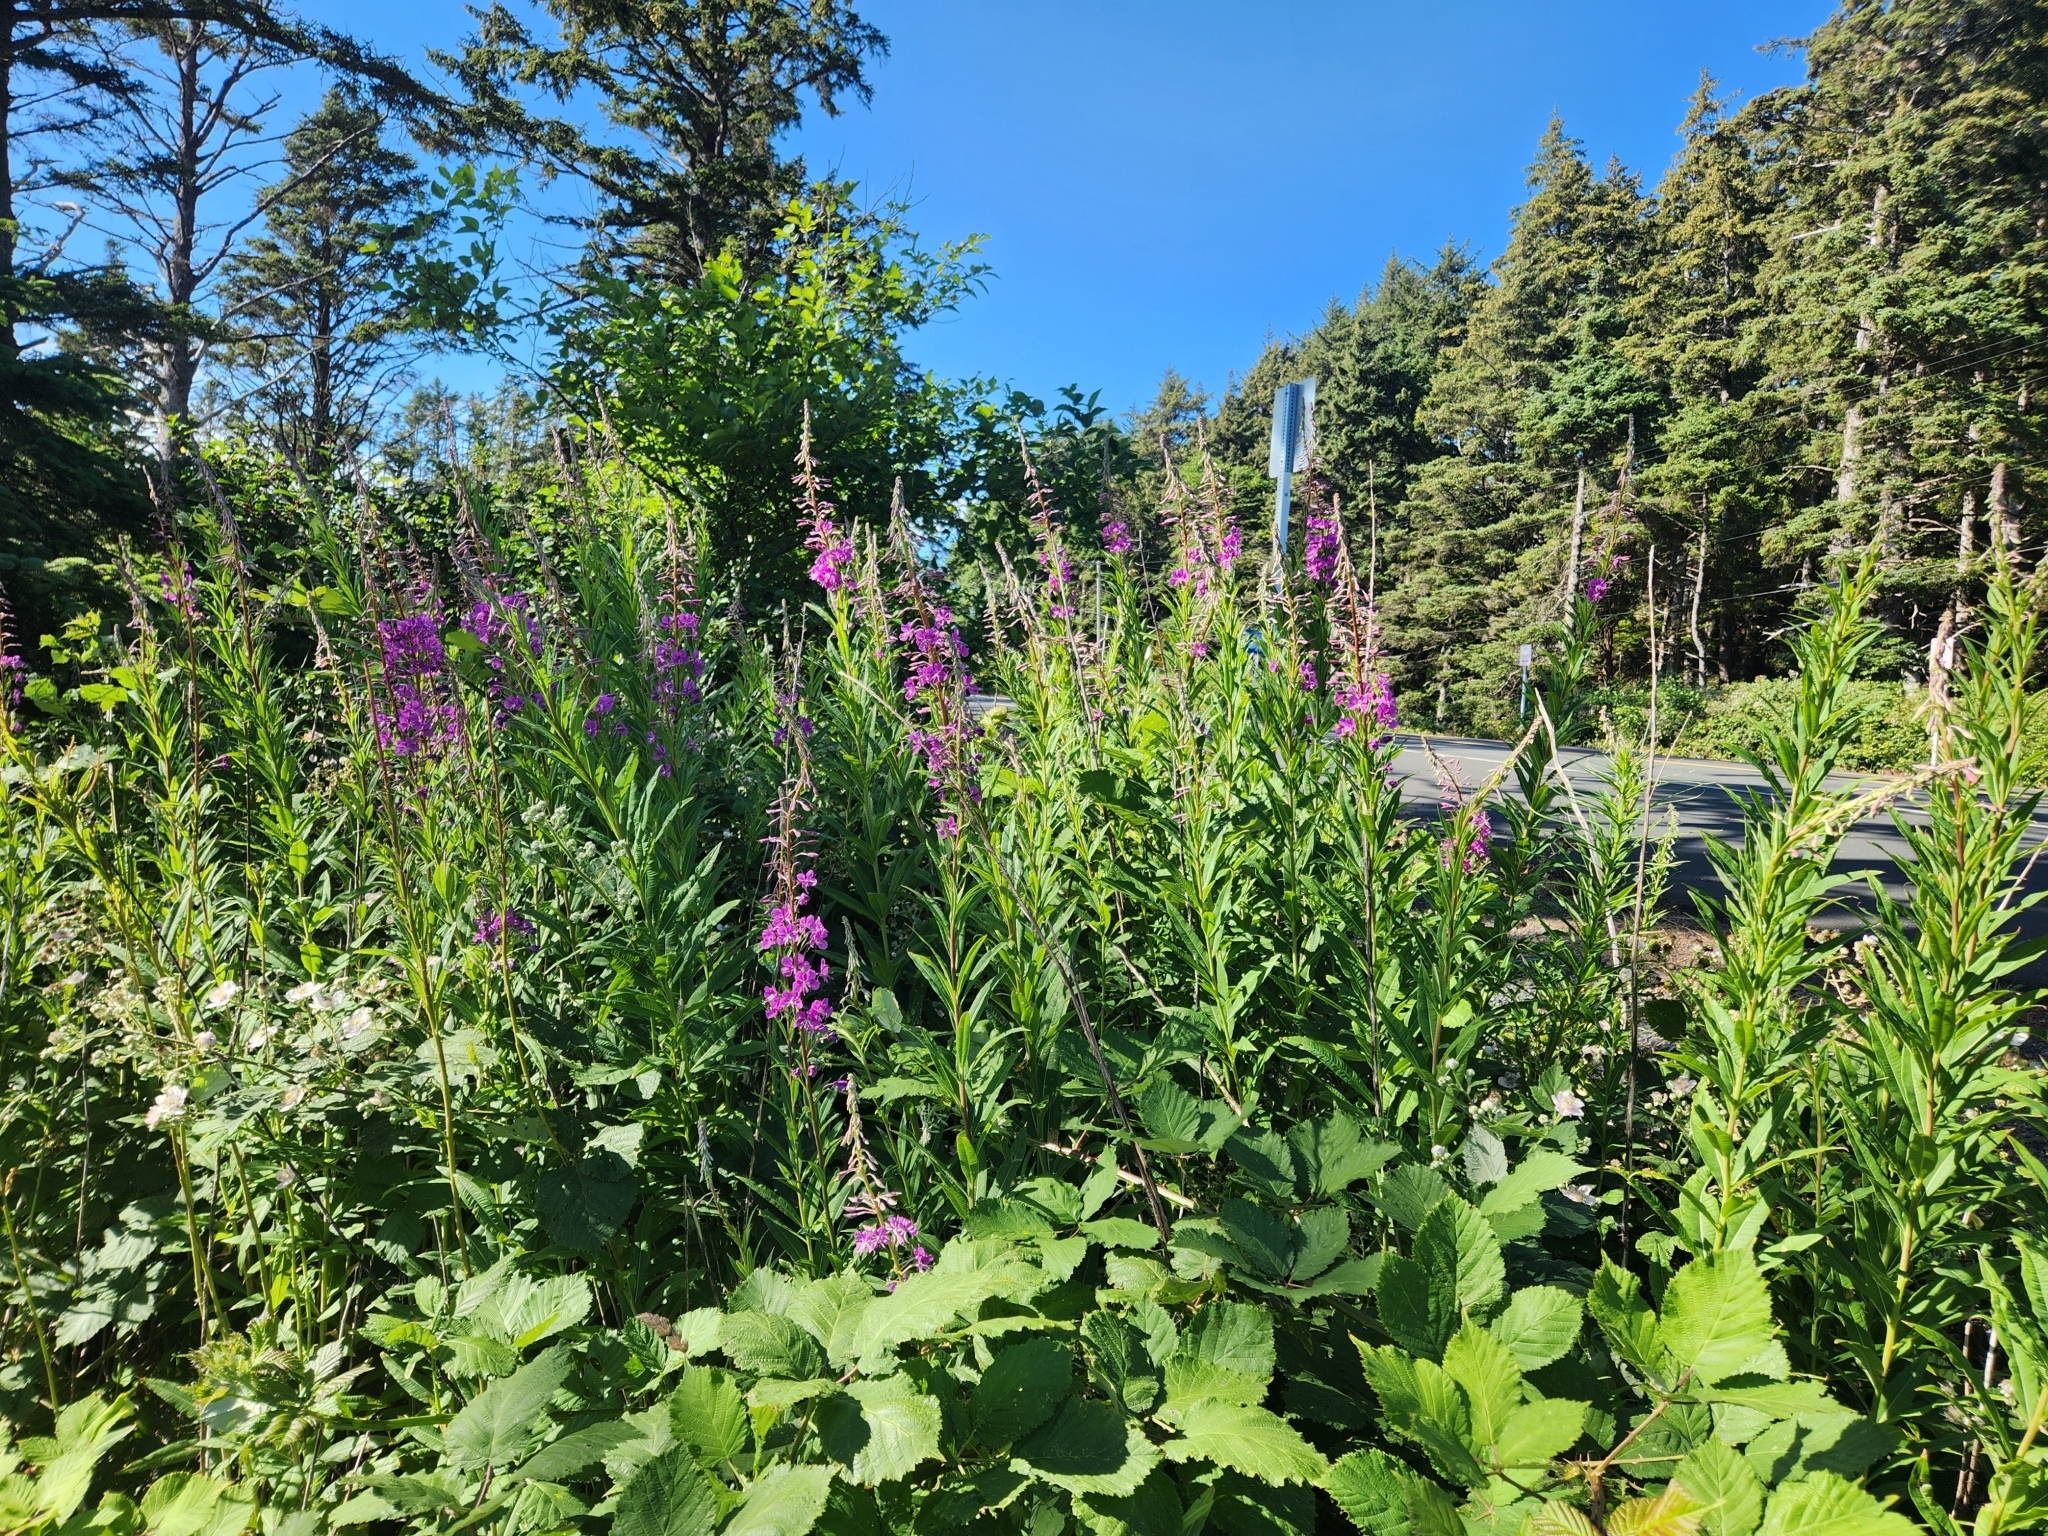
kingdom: Plantae
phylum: Tracheophyta
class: Magnoliopsida
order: Myrtales
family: Onagraceae
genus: Chamaenerion
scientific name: Chamaenerion angustifolium
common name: Fireweed
